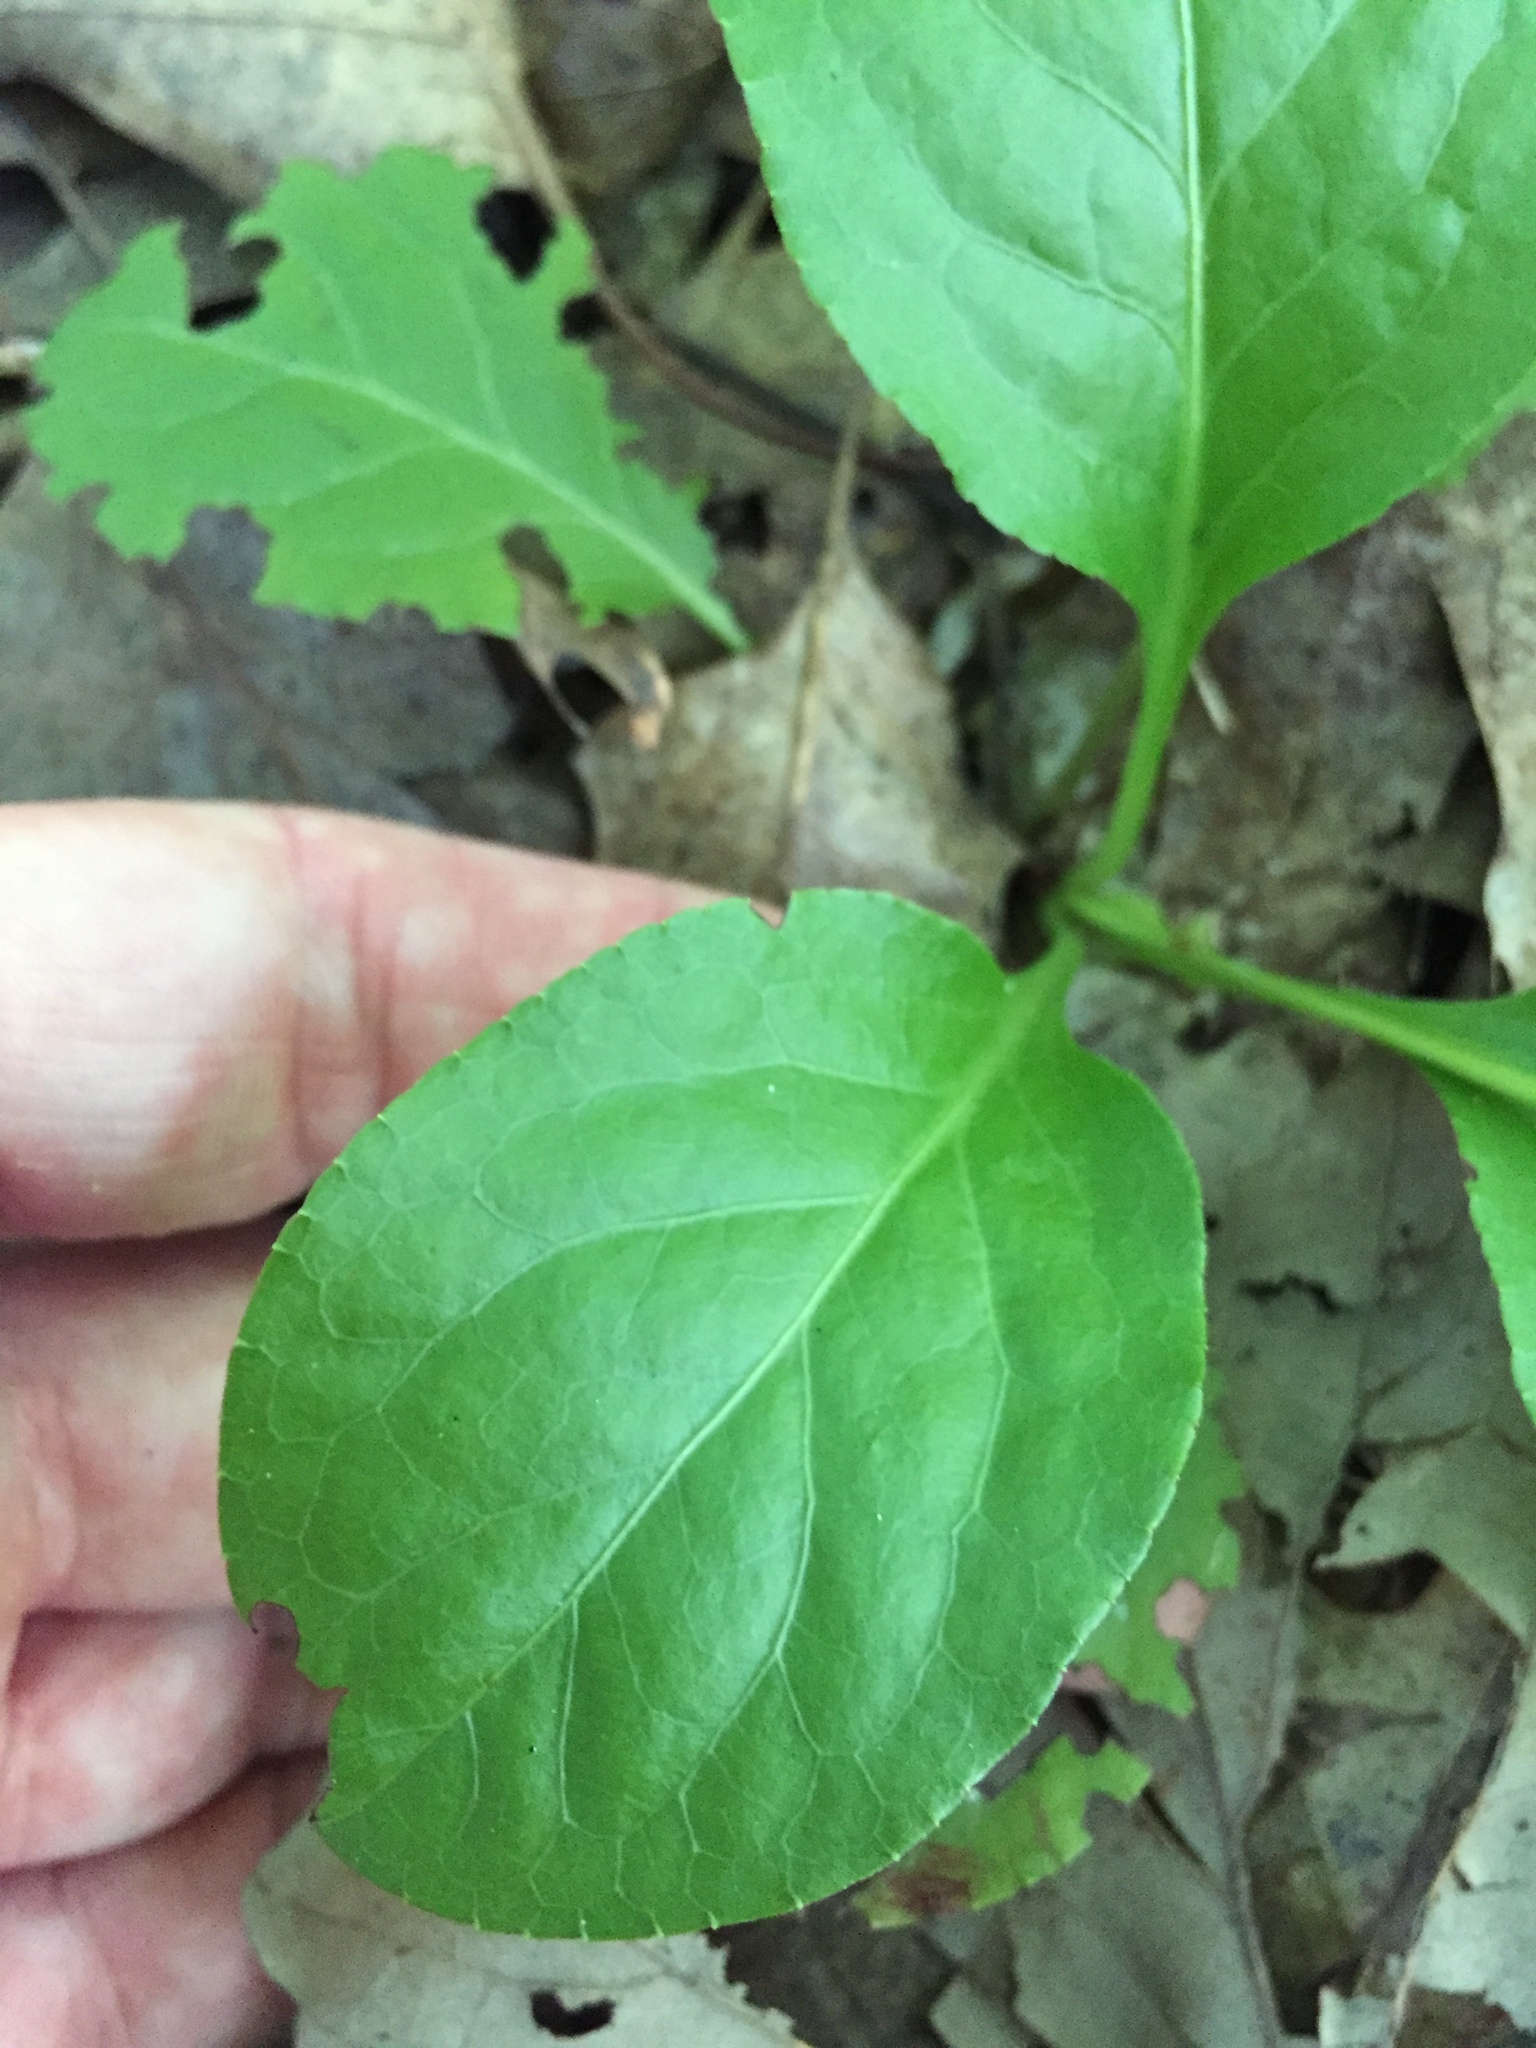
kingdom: Plantae
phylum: Tracheophyta
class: Magnoliopsida
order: Ericales
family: Ericaceae
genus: Pyrola
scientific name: Pyrola elliptica
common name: Shinleaf
